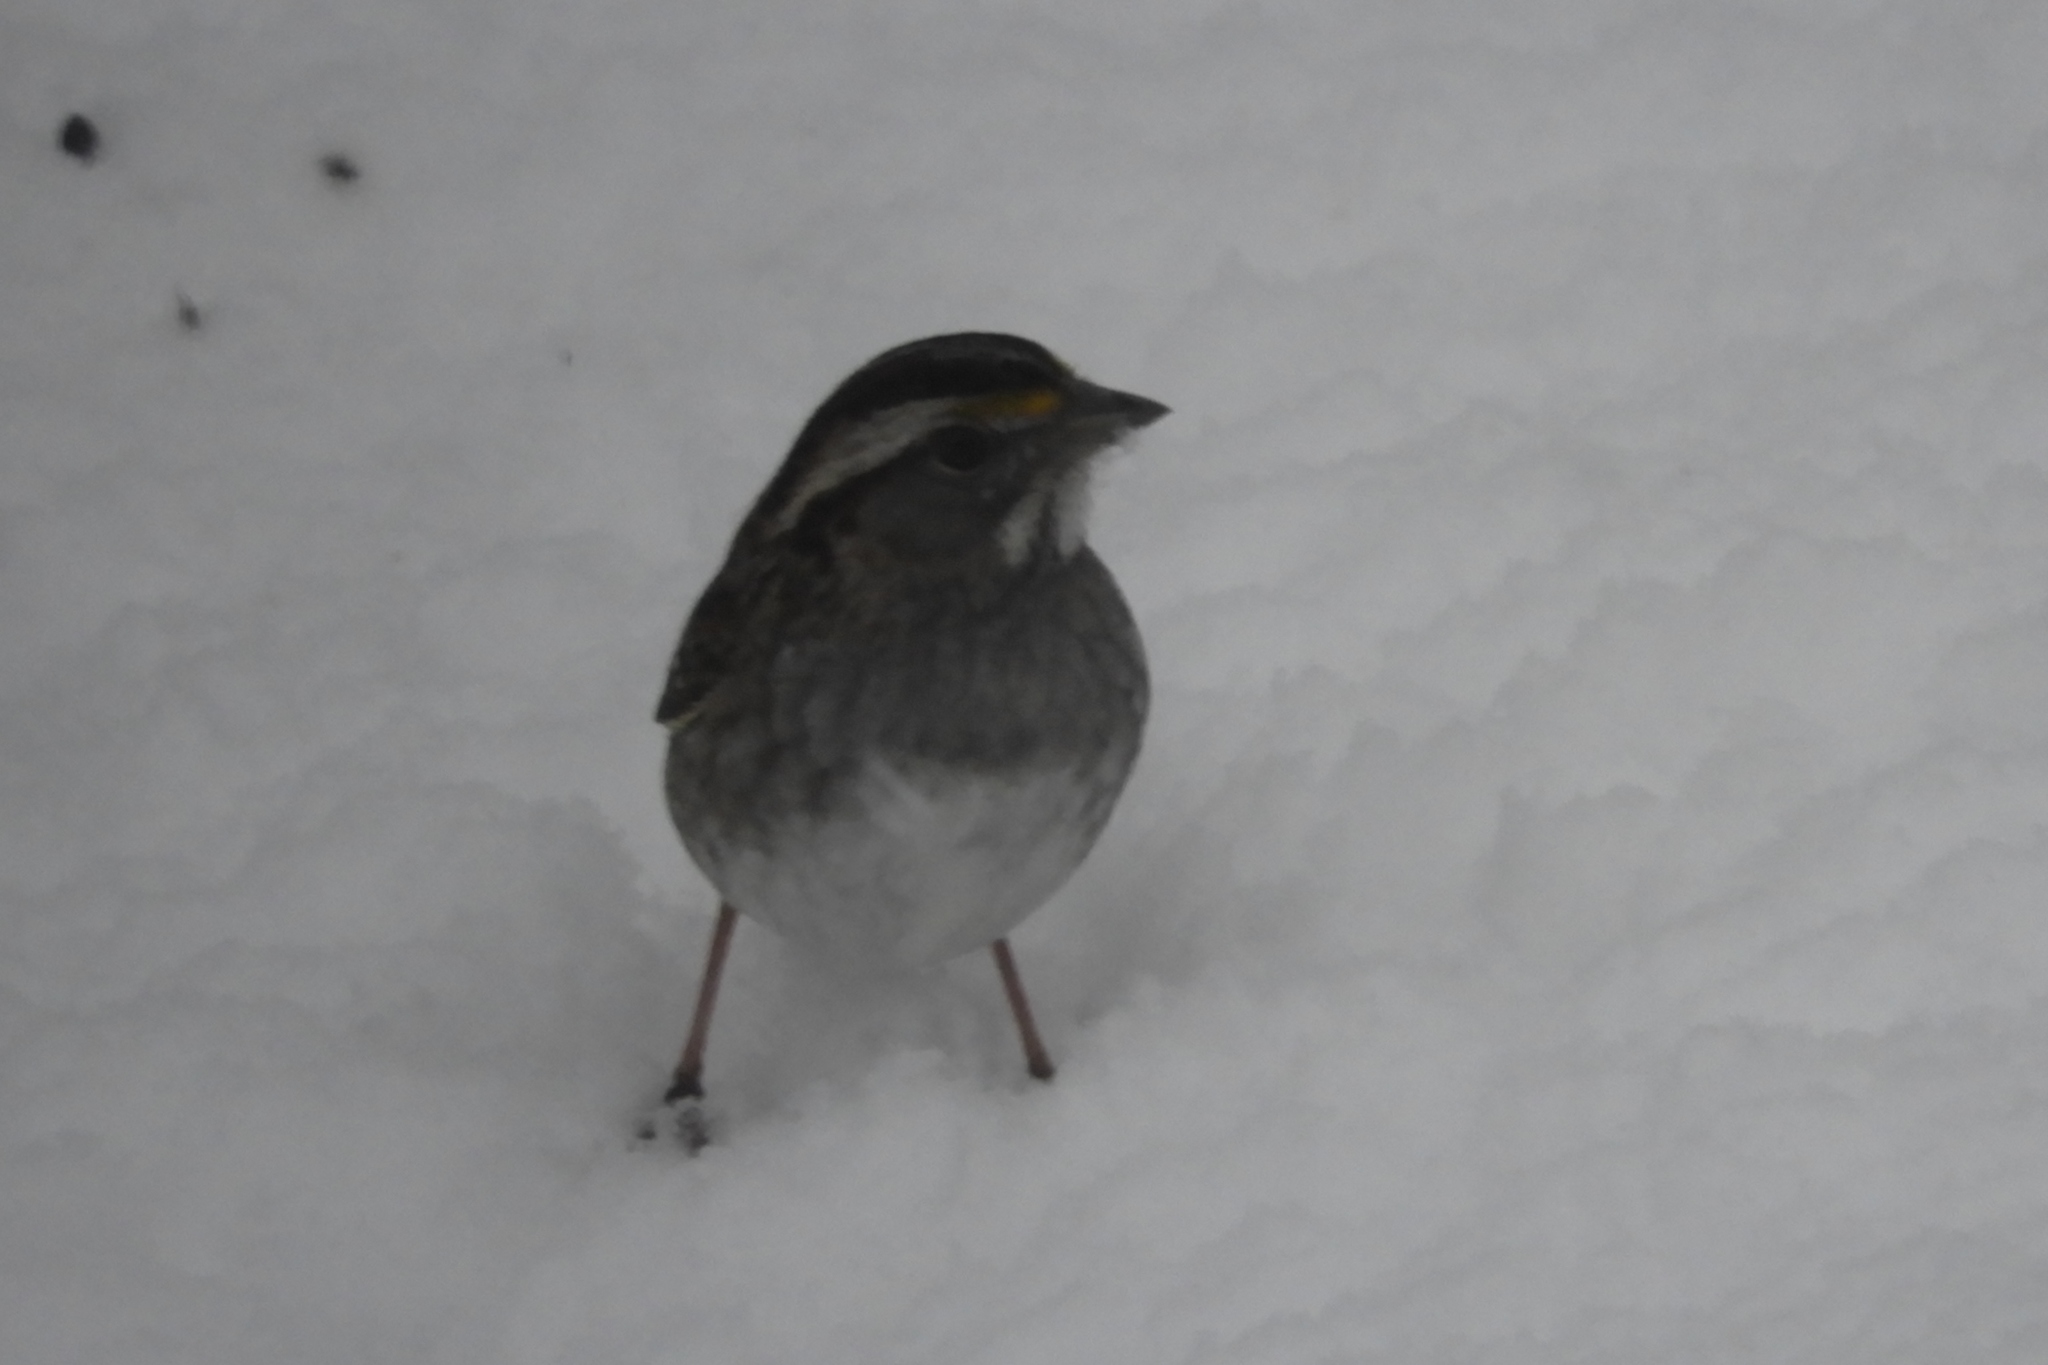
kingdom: Animalia
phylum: Chordata
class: Aves
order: Passeriformes
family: Passerellidae
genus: Zonotrichia
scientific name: Zonotrichia albicollis
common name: White-throated sparrow
